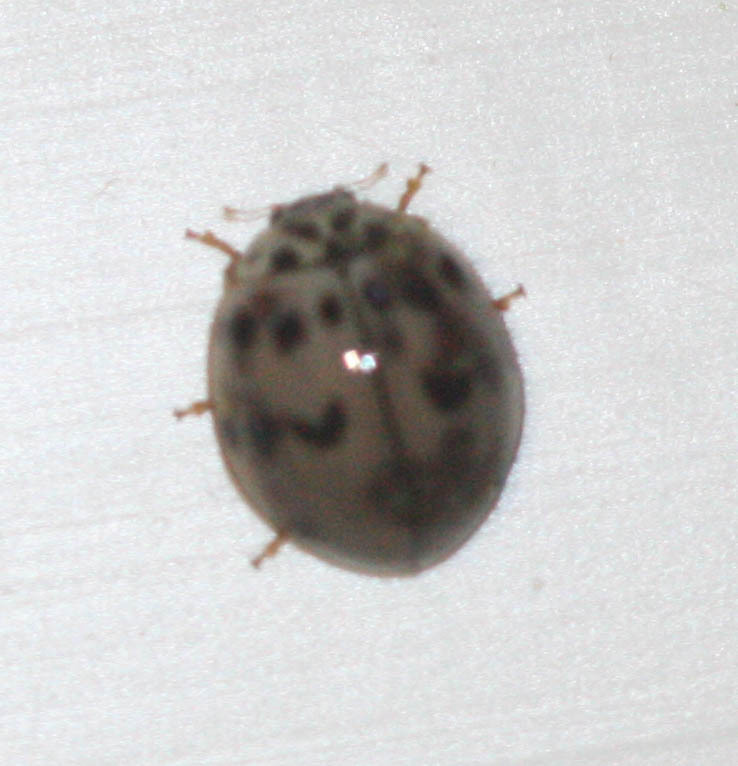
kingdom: Animalia
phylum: Arthropoda
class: Insecta
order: Coleoptera
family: Coccinellidae
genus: Olla
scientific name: Olla v-nigrum
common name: Ashy gray lady beetle
